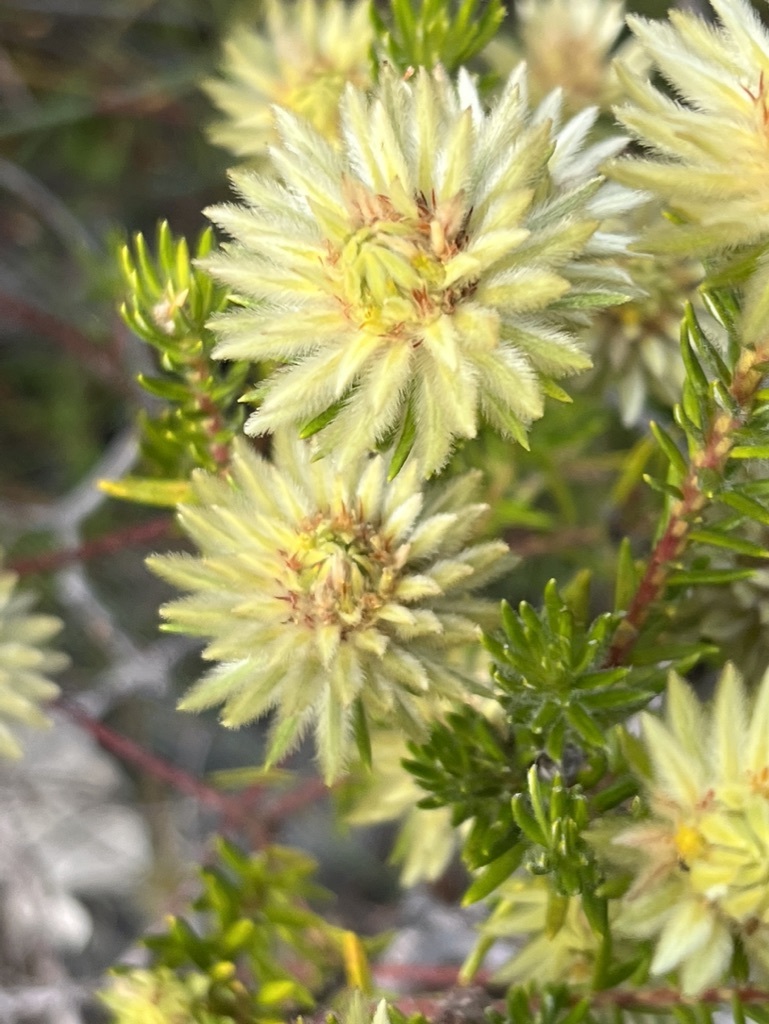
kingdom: Plantae
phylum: Tracheophyta
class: Magnoliopsida
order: Rosales
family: Rhamnaceae
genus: Phylica
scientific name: Phylica dodii
